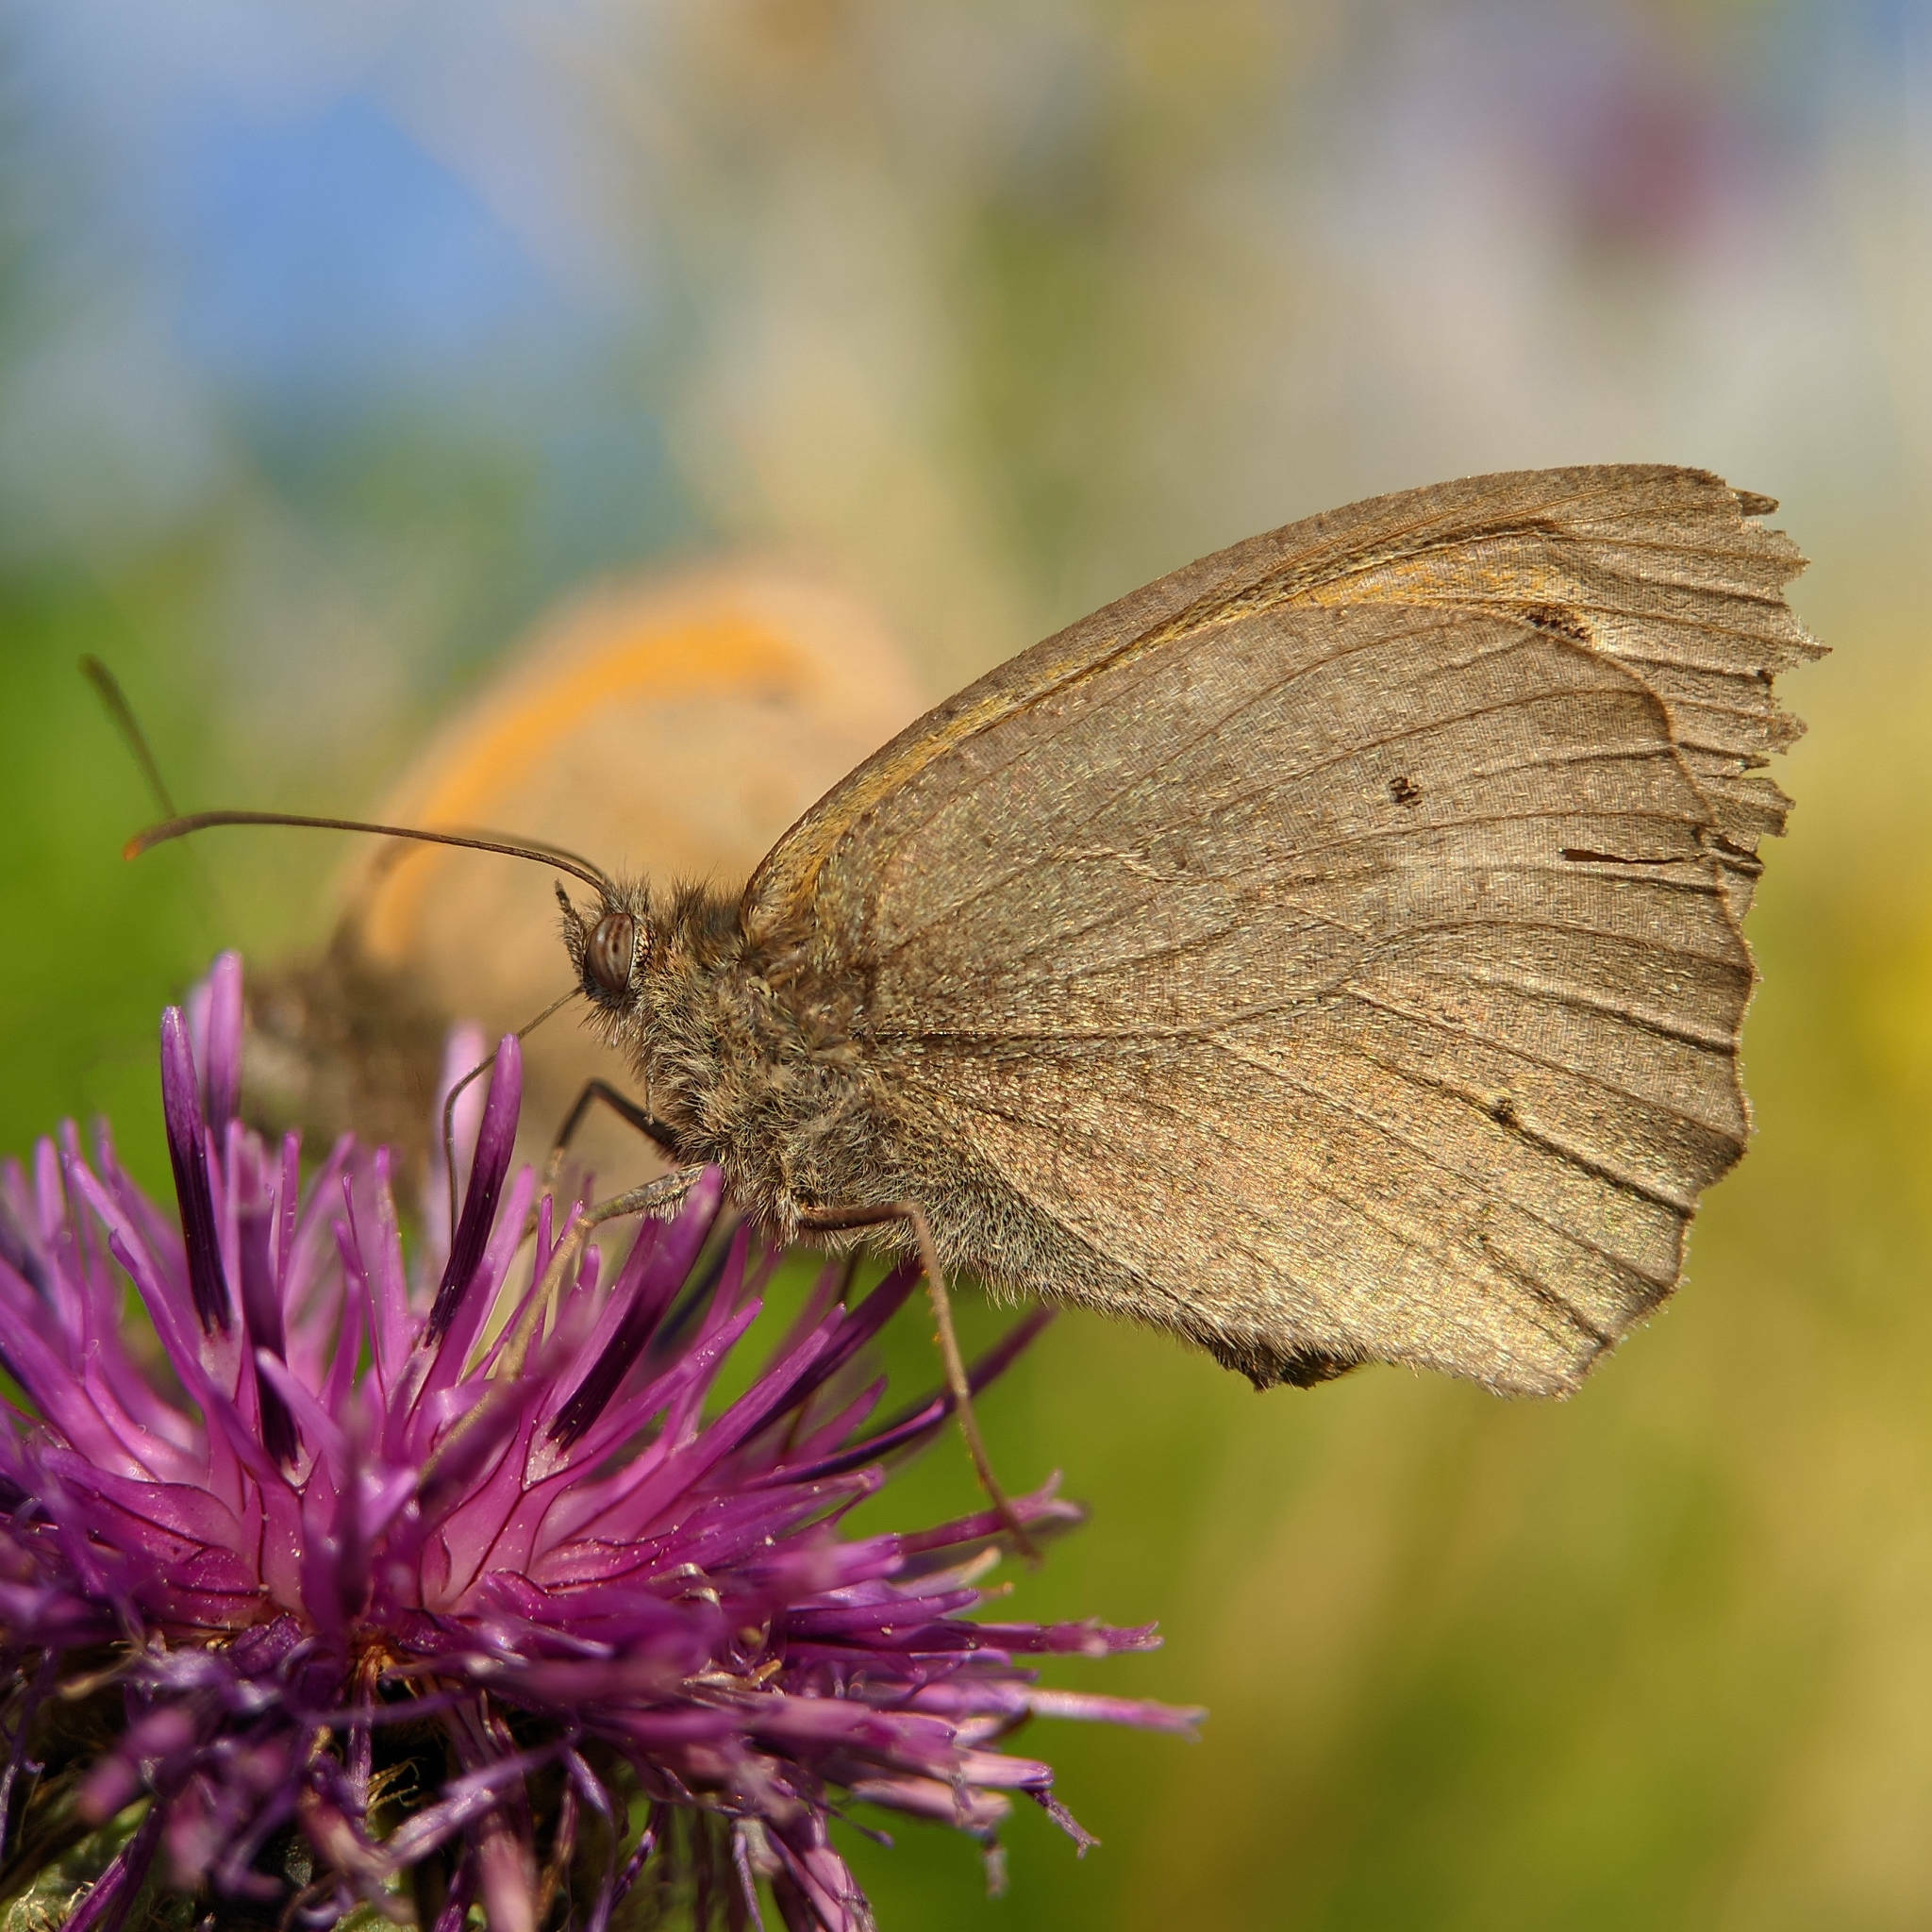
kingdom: Animalia
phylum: Arthropoda
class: Insecta
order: Lepidoptera
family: Nymphalidae
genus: Maniola
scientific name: Maniola jurtina
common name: Meadow brown
